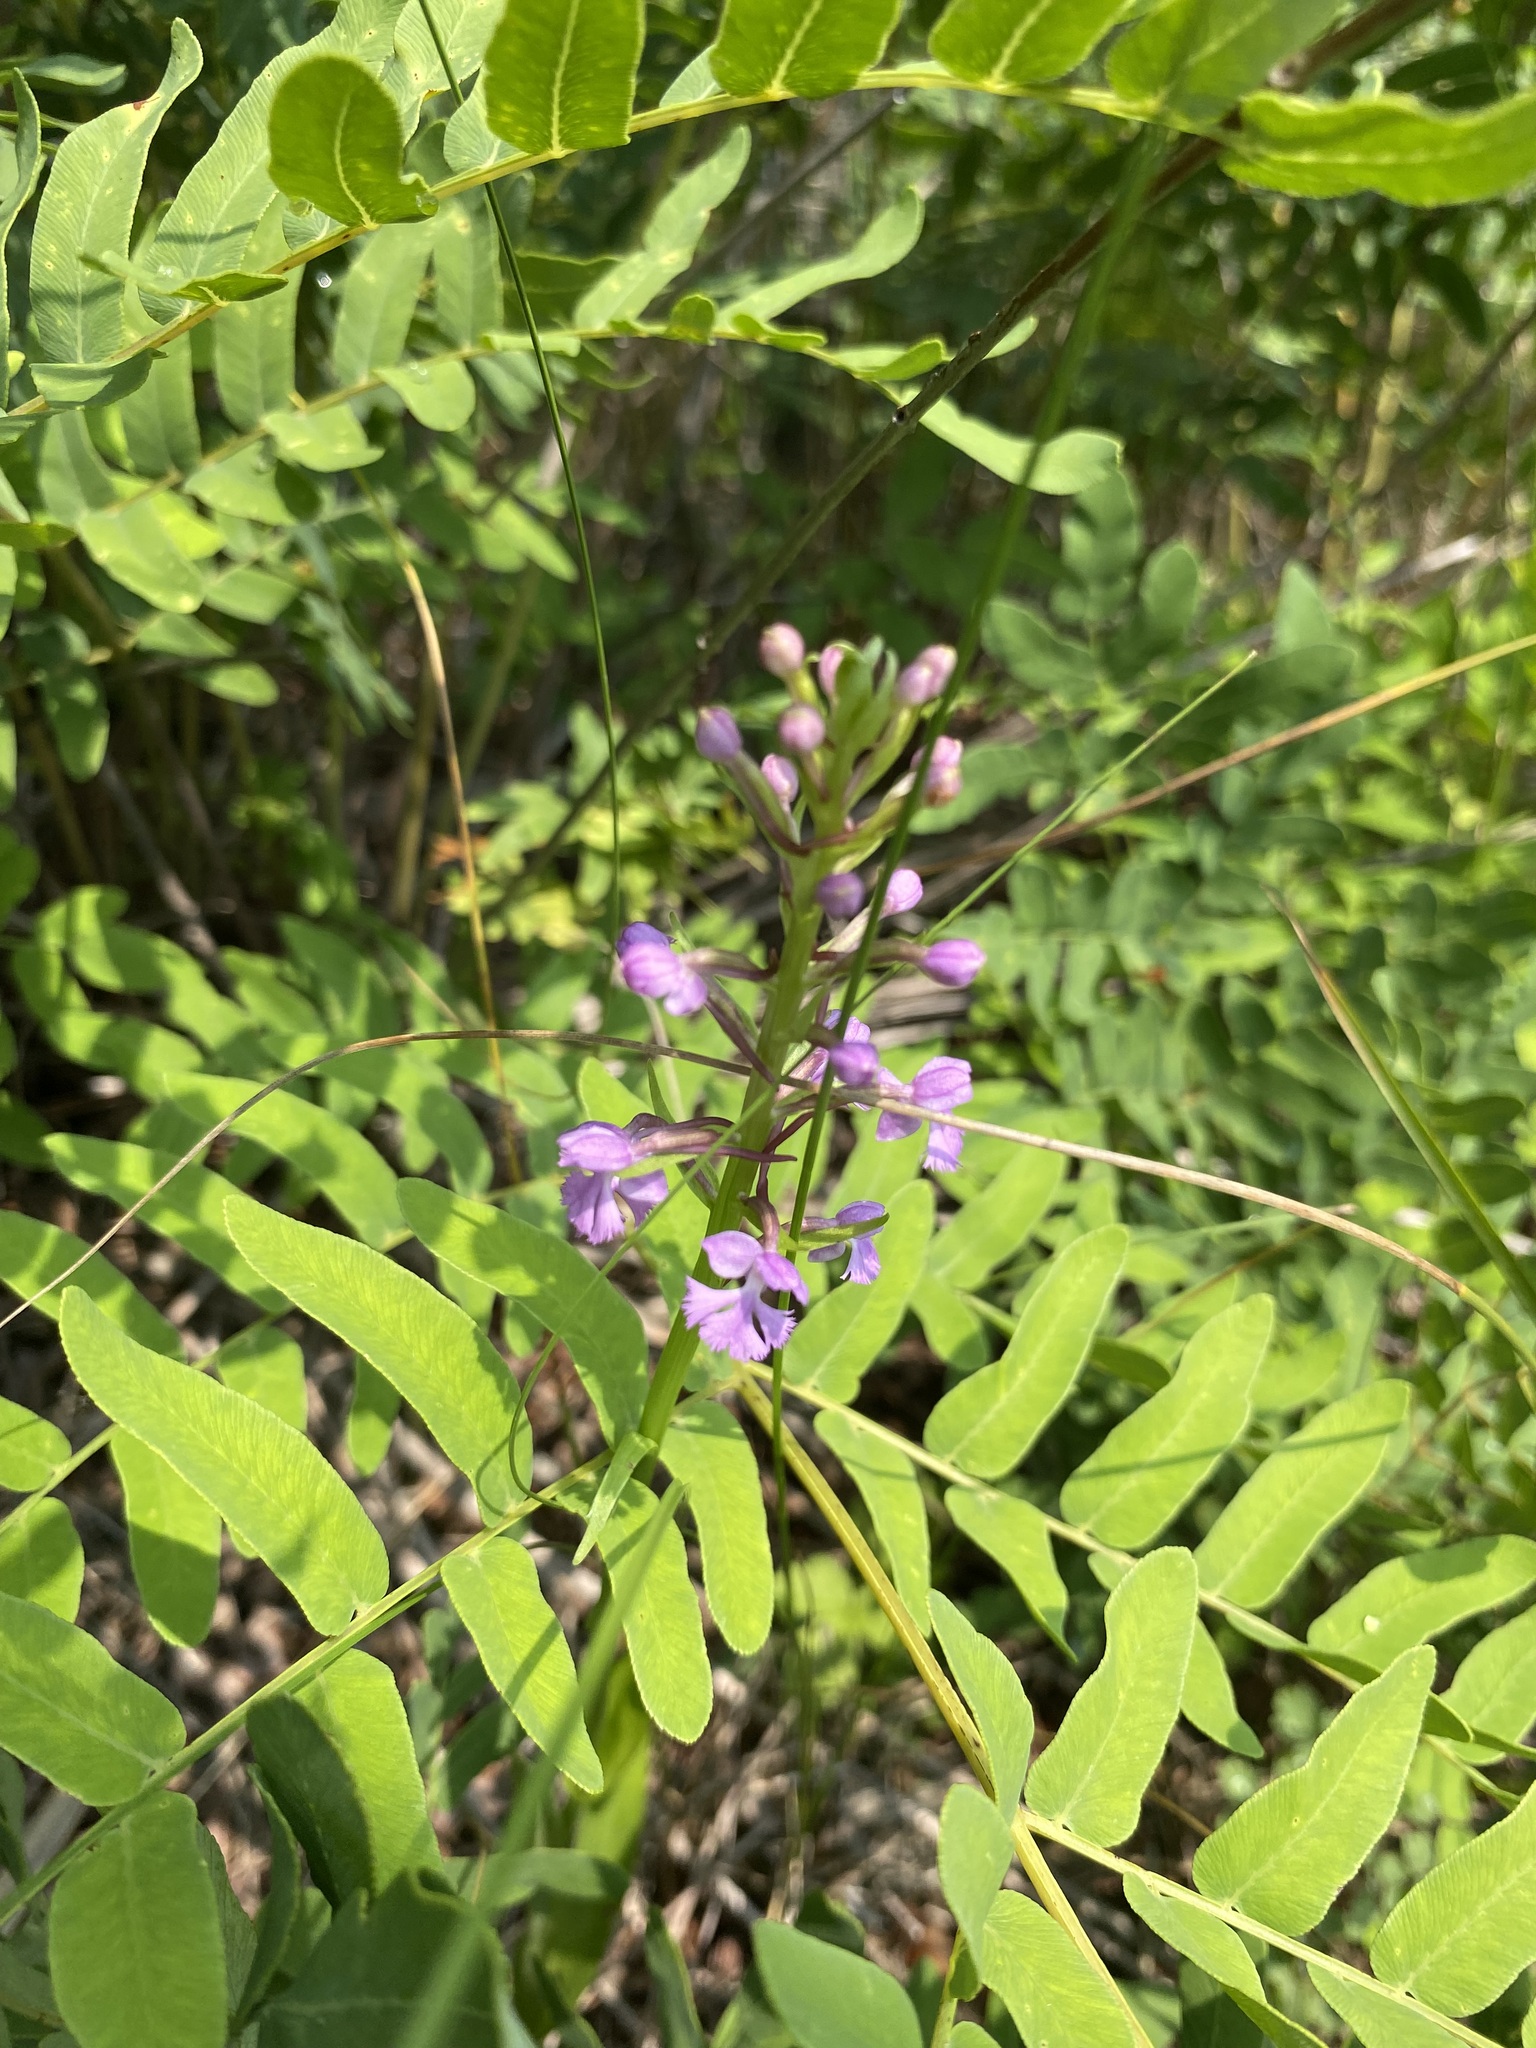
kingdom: Plantae
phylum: Tracheophyta
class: Liliopsida
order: Asparagales
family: Orchidaceae
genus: Platanthera
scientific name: Platanthera psycodes
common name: Lesser purple fringed orchid
